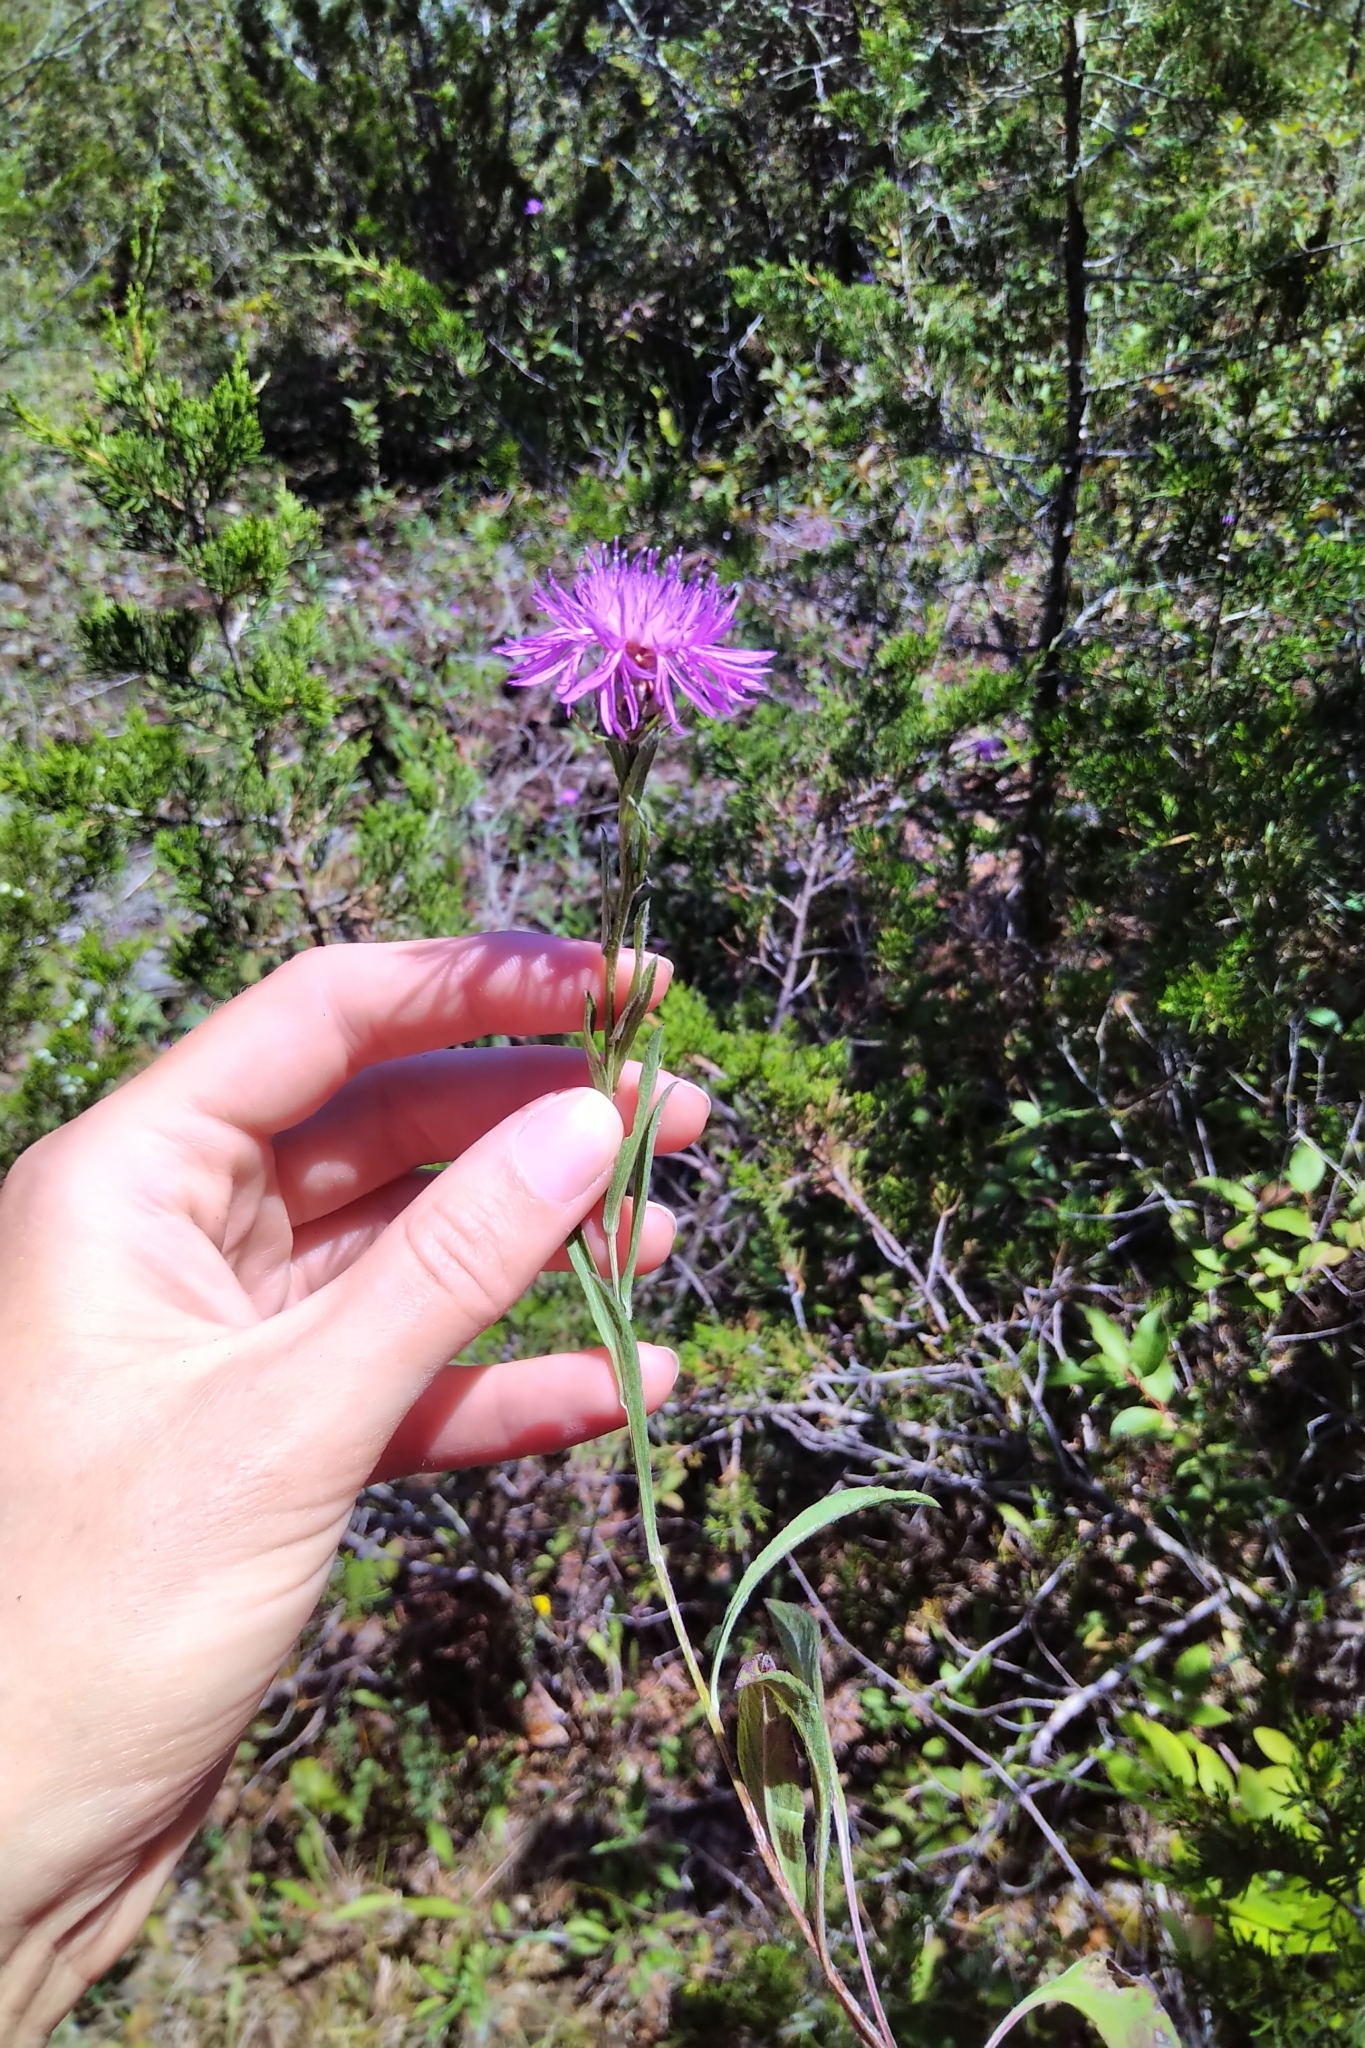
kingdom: Plantae
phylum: Tracheophyta
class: Magnoliopsida
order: Asterales
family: Asteraceae
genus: Centaurea
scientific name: Centaurea jacea
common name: Brown knapweed
